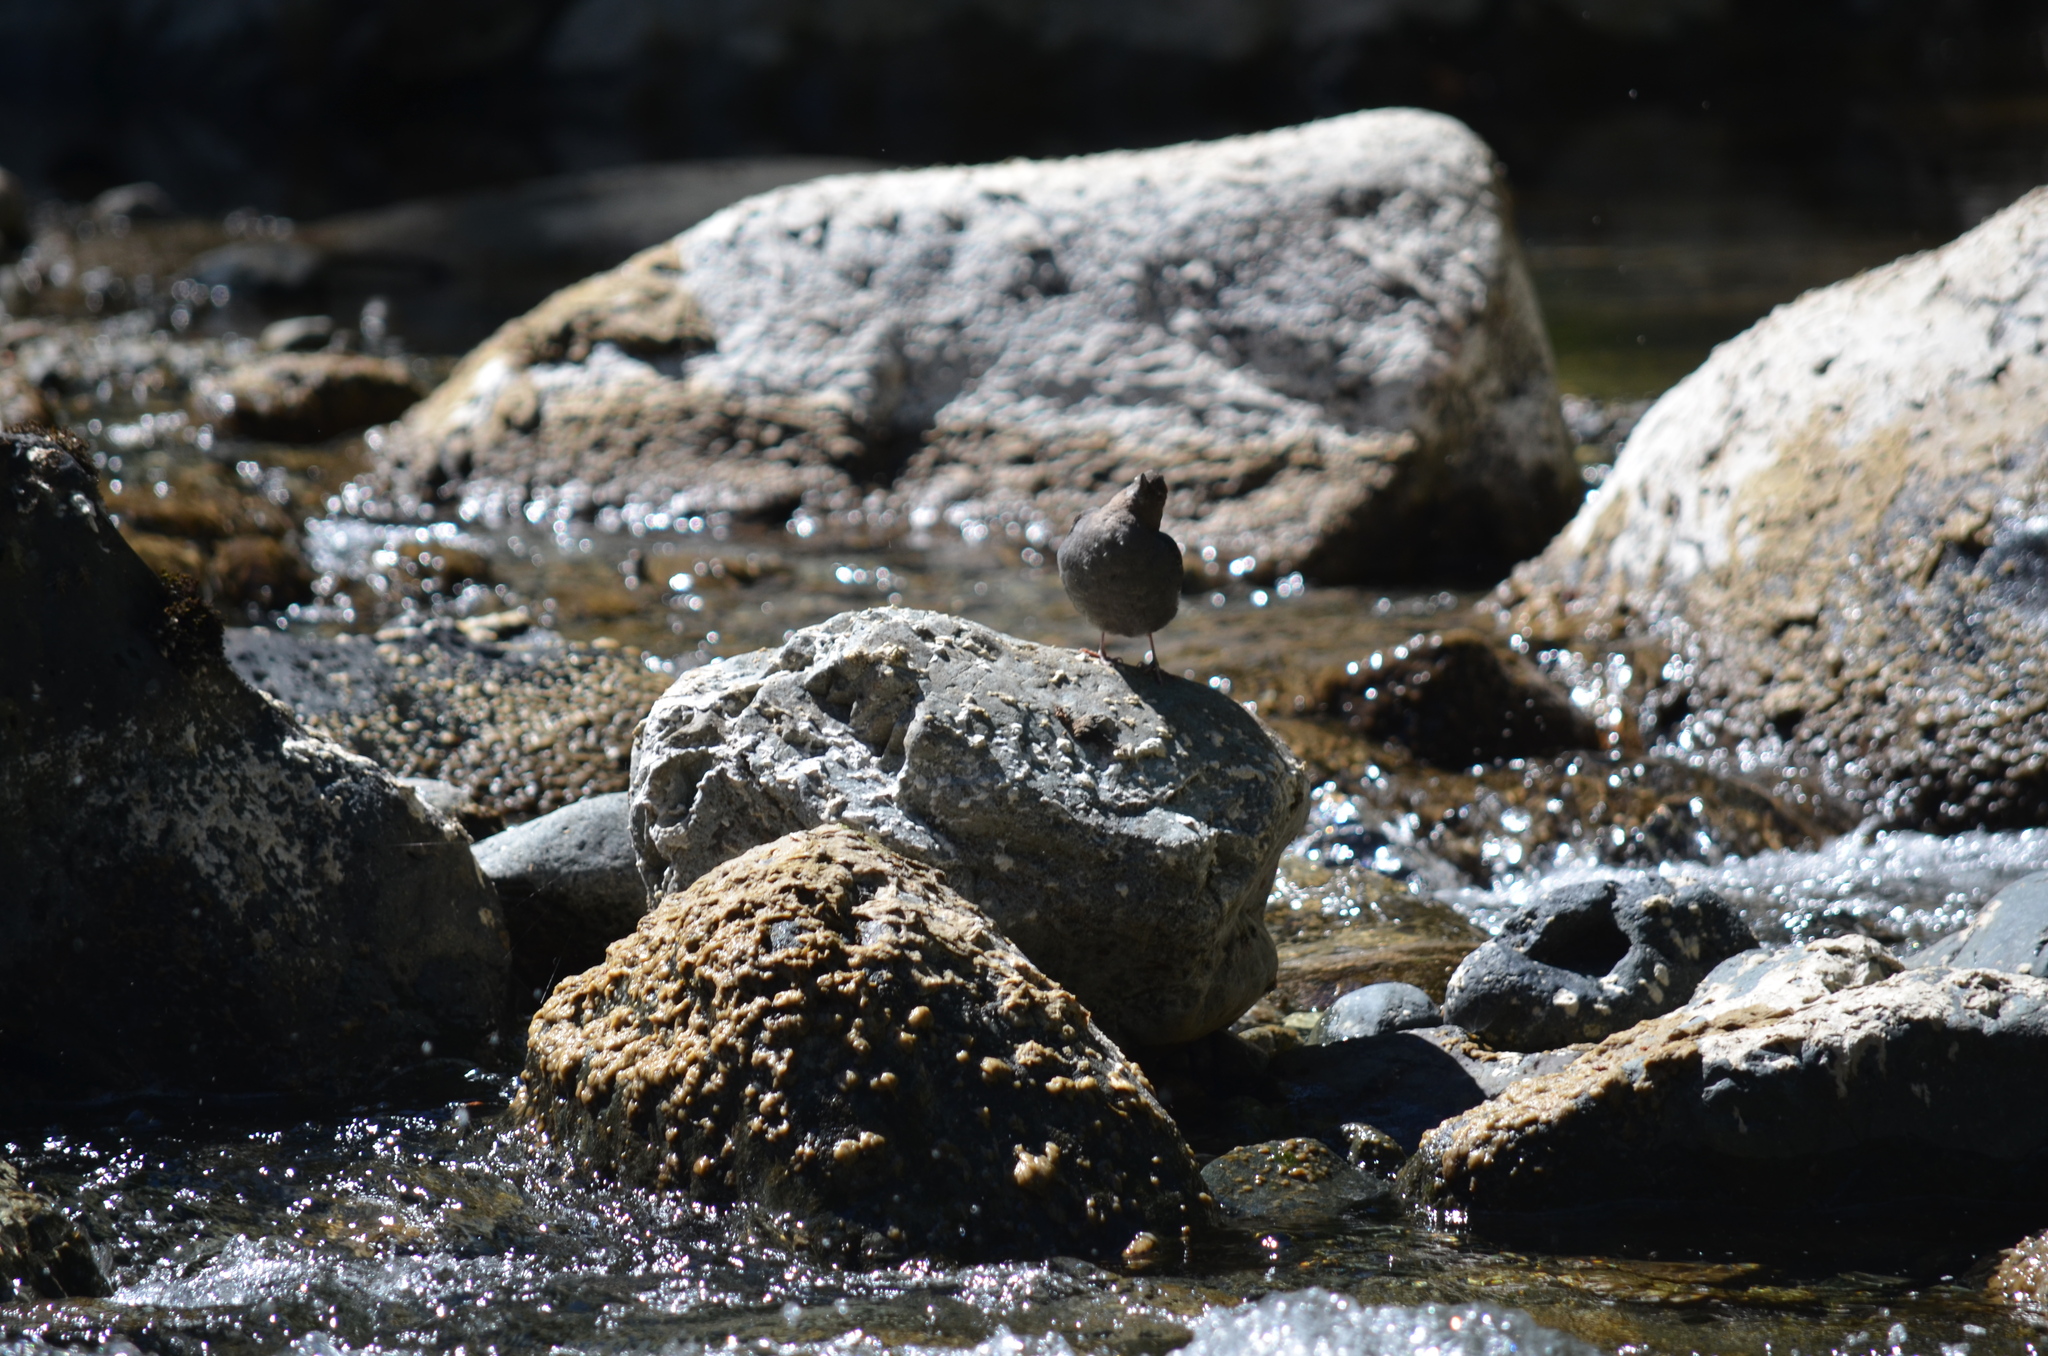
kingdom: Animalia
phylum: Chordata
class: Aves
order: Passeriformes
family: Cinclidae
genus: Cinclus
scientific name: Cinclus mexicanus
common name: American dipper
